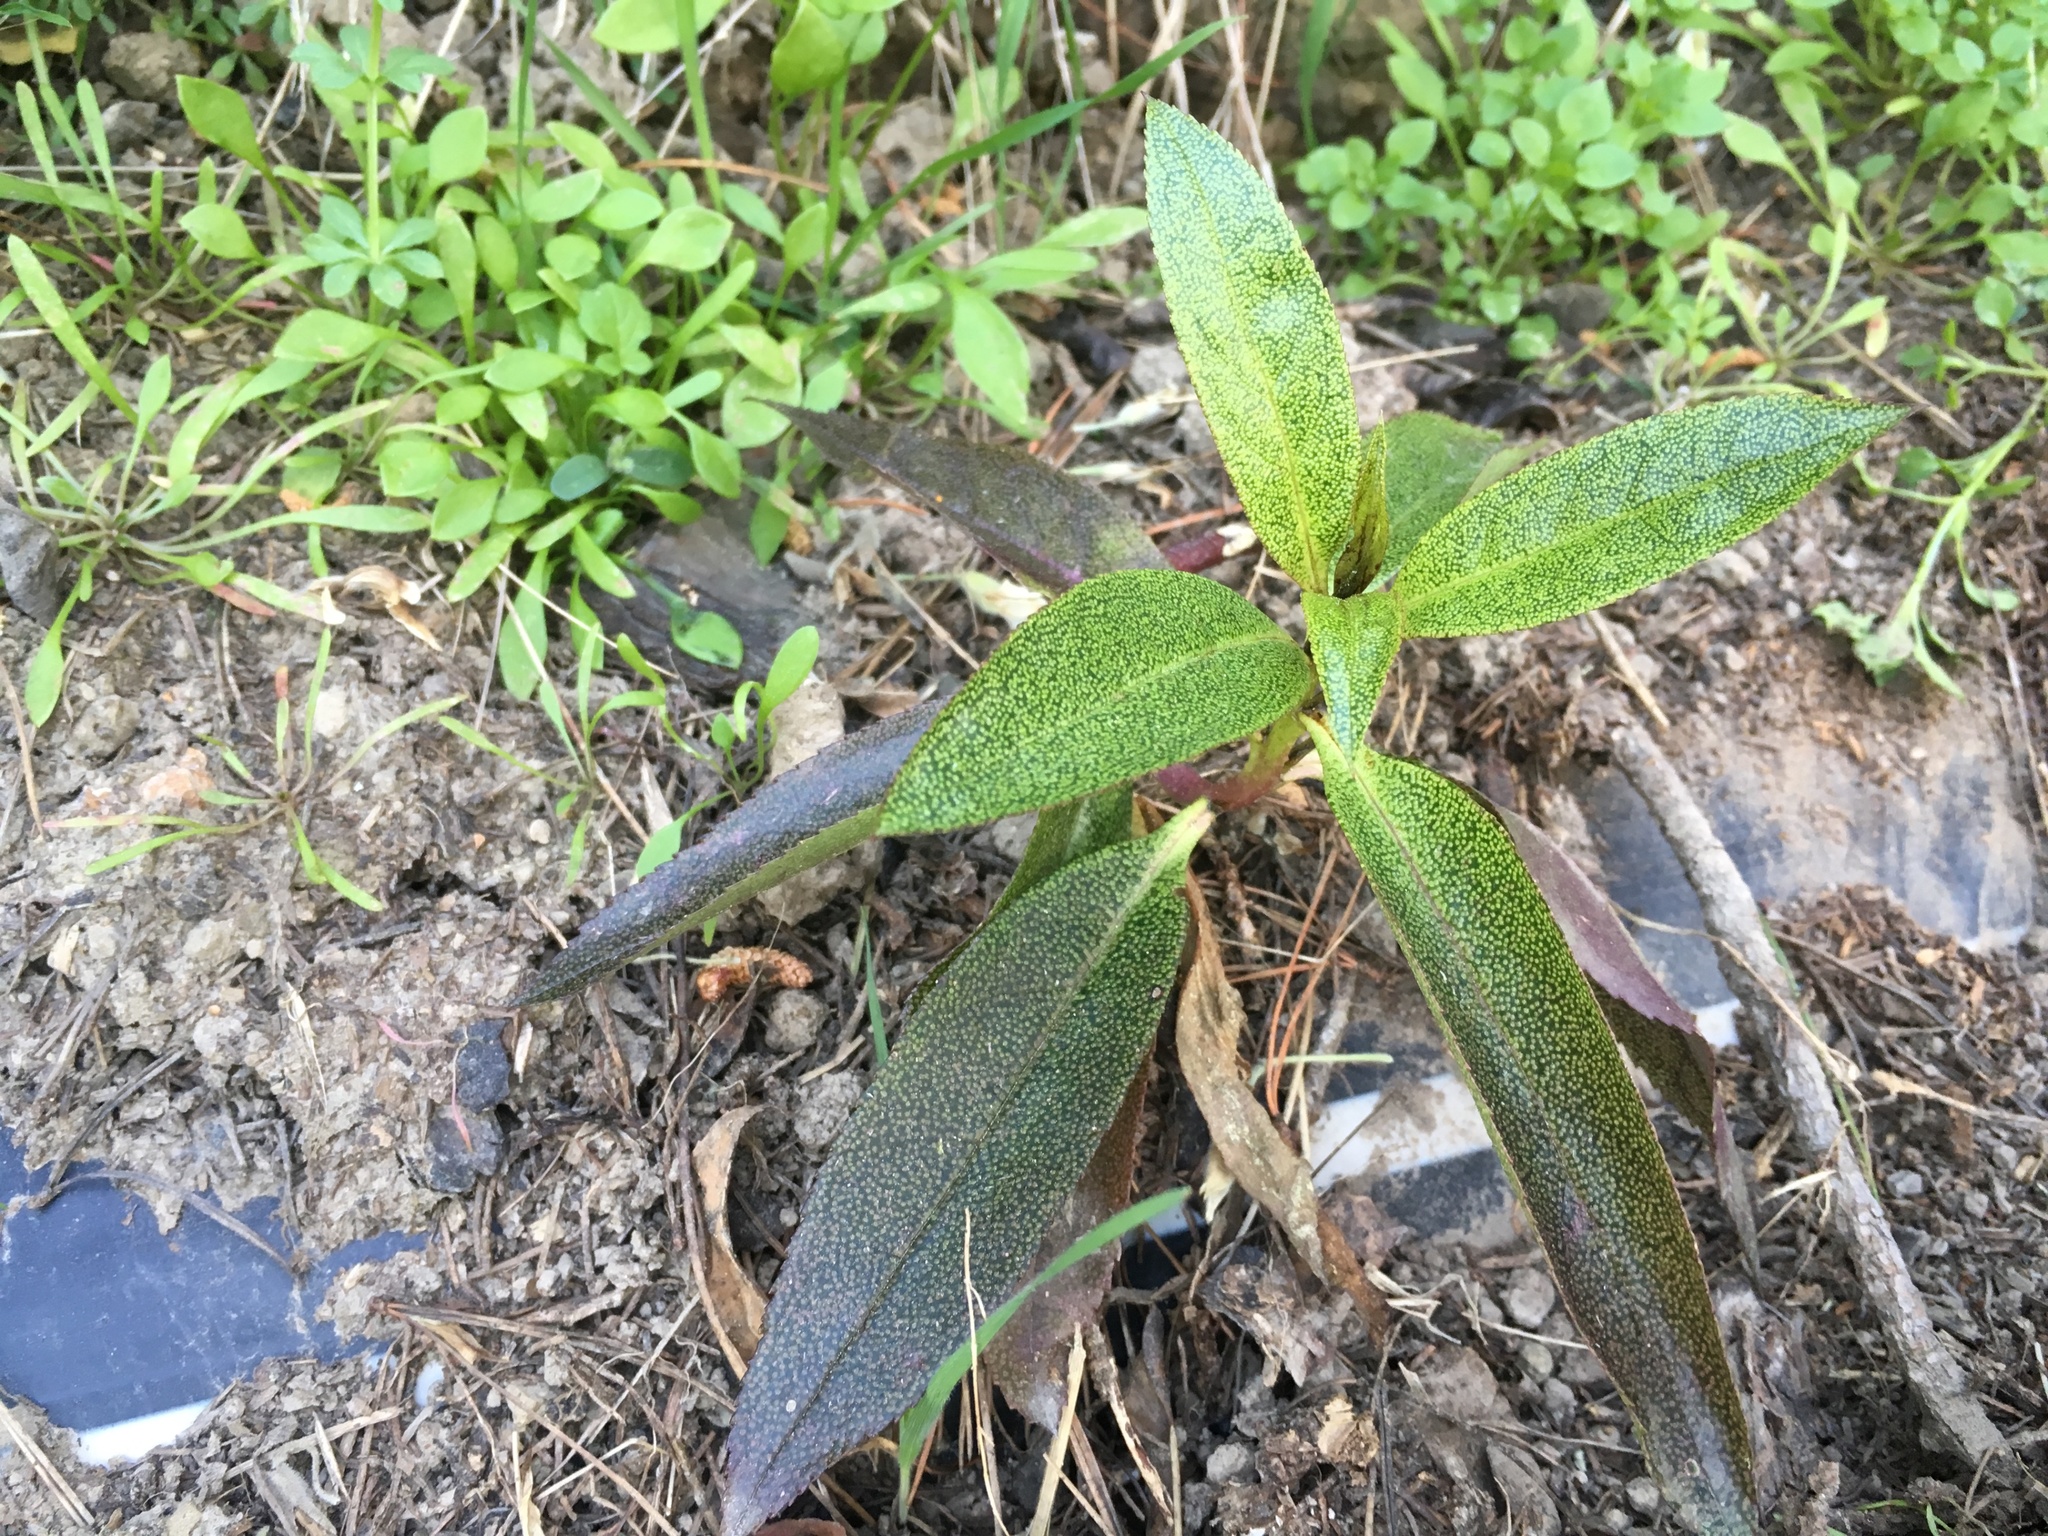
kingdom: Plantae
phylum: Tracheophyta
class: Magnoliopsida
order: Lamiales
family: Scrophulariaceae
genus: Myoporum
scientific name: Myoporum laetum
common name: Ngaio tree
